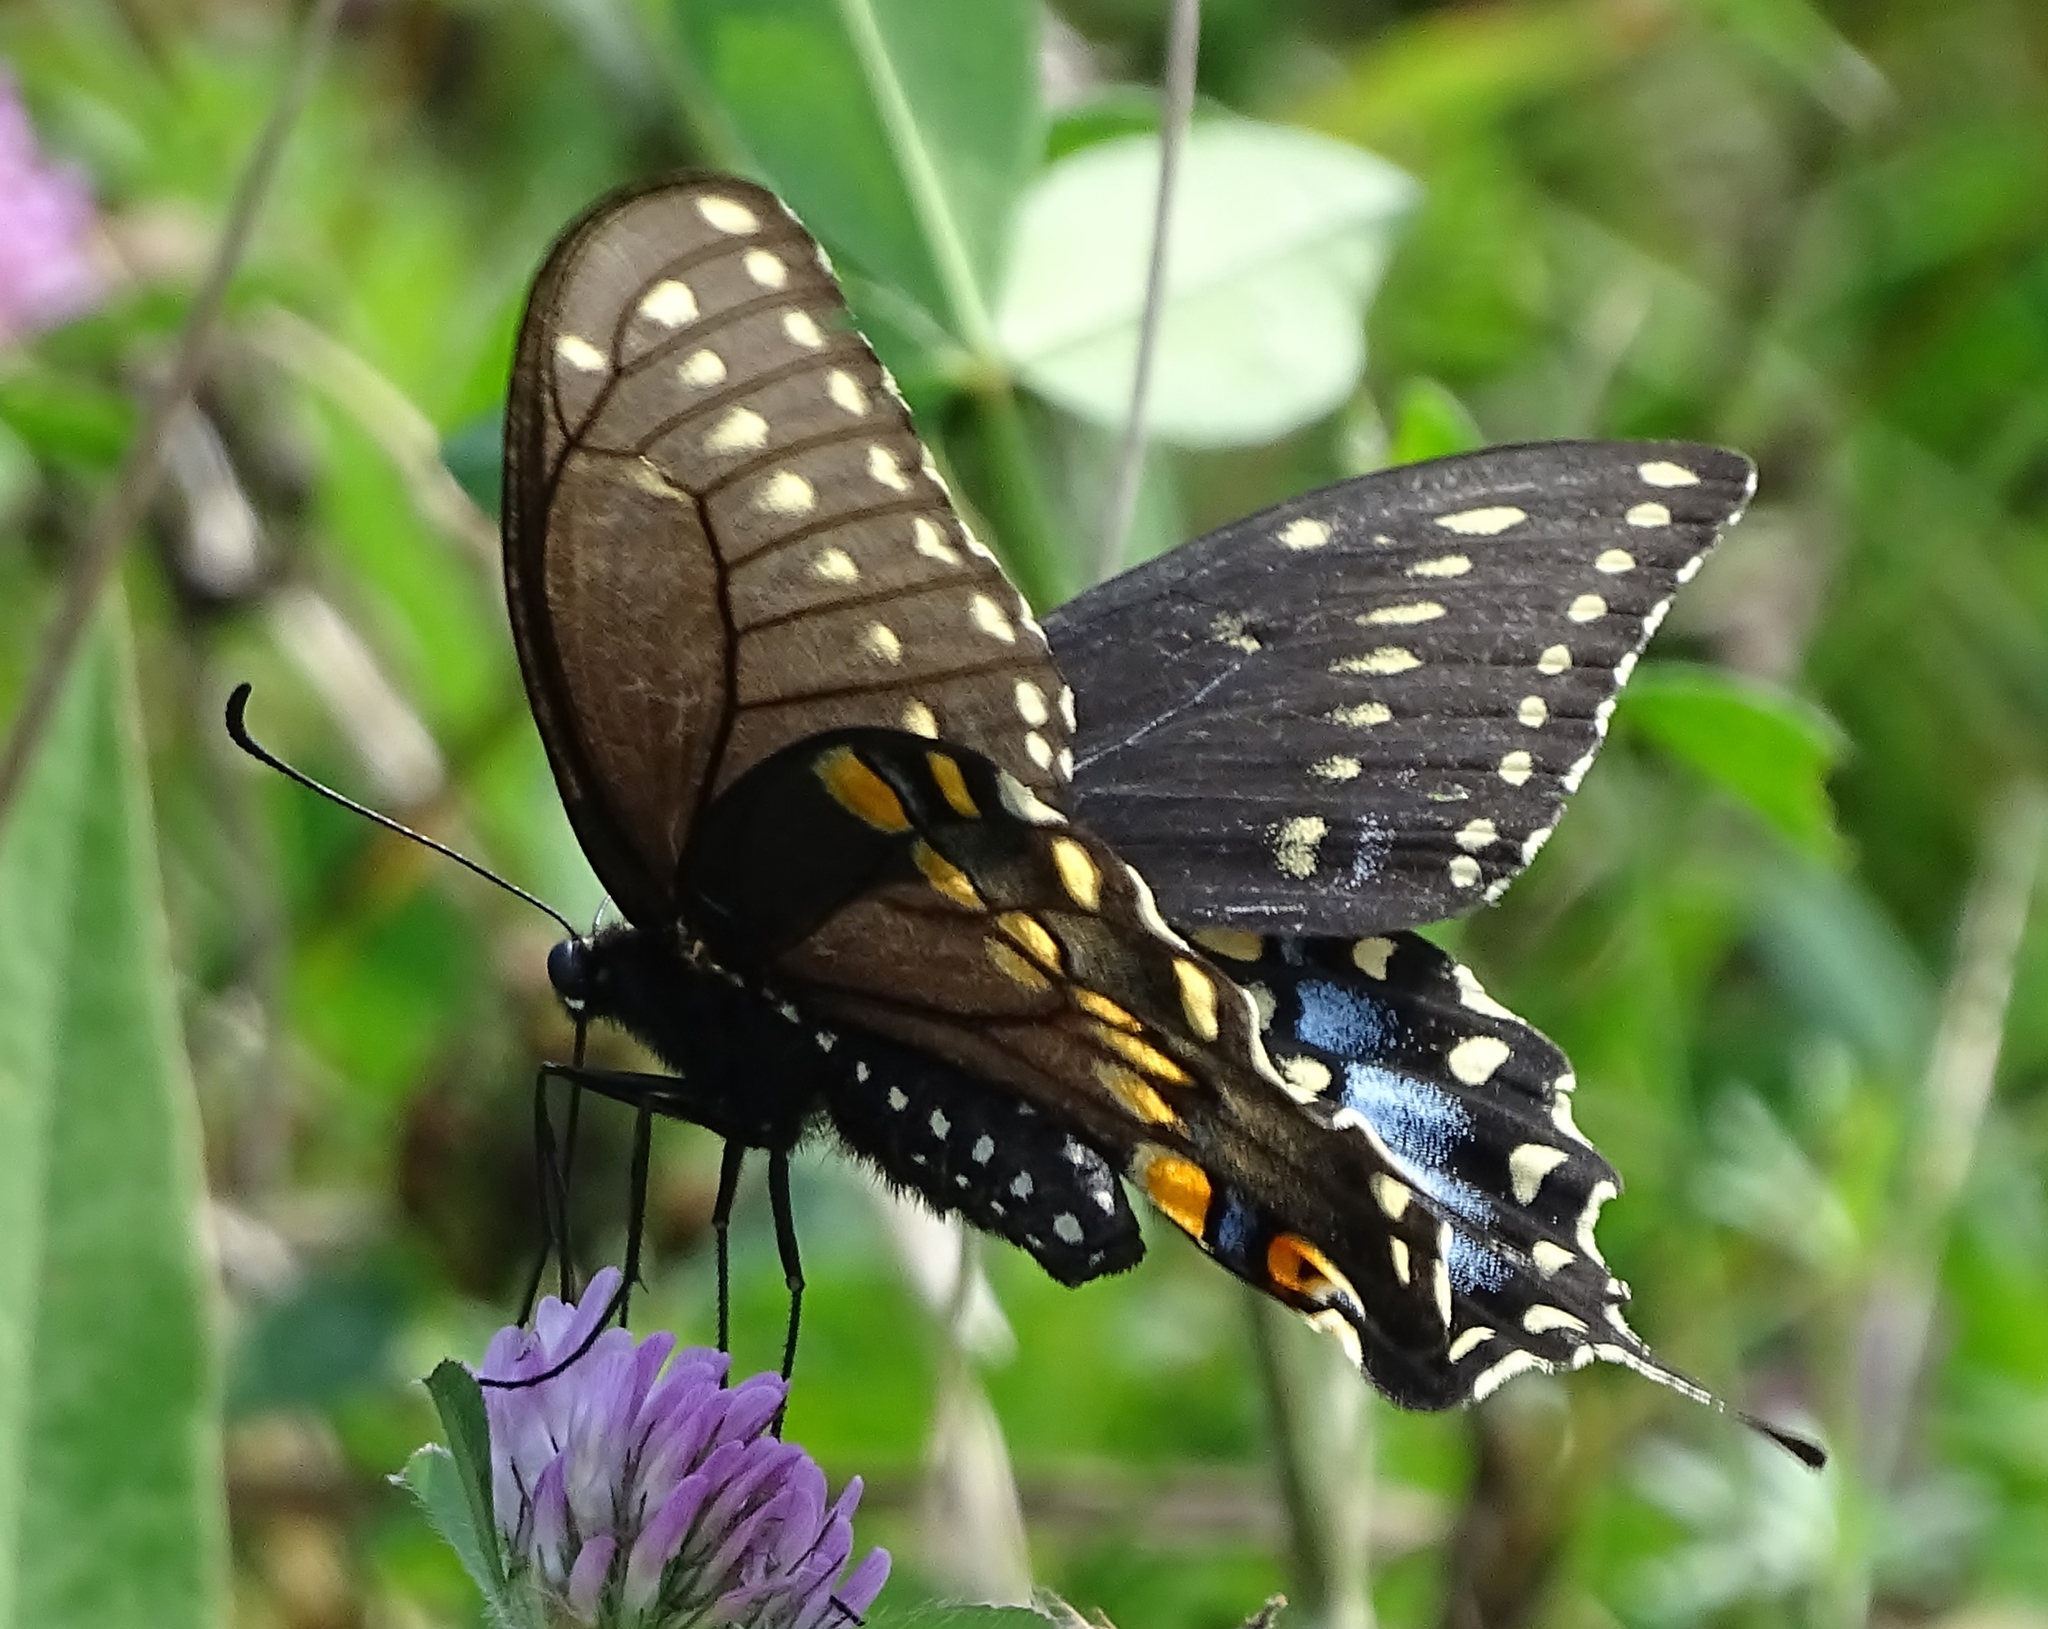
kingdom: Animalia
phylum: Arthropoda
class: Insecta
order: Lepidoptera
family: Papilionidae
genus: Papilio
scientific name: Papilio polyxenes
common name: Black swallowtail
